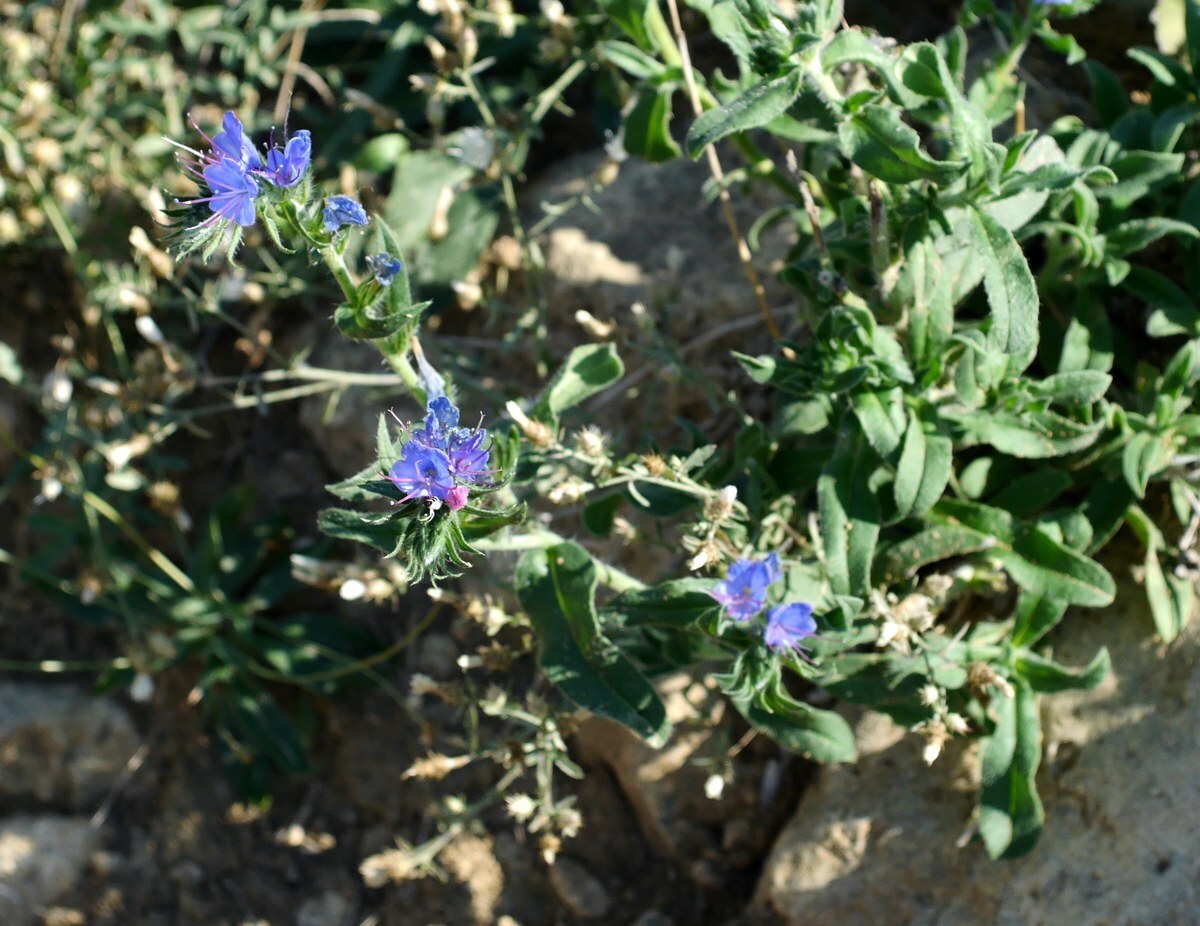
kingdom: Plantae
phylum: Tracheophyta
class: Magnoliopsida
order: Boraginales
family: Boraginaceae
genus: Echium
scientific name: Echium vulgare
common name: Common viper's bugloss
